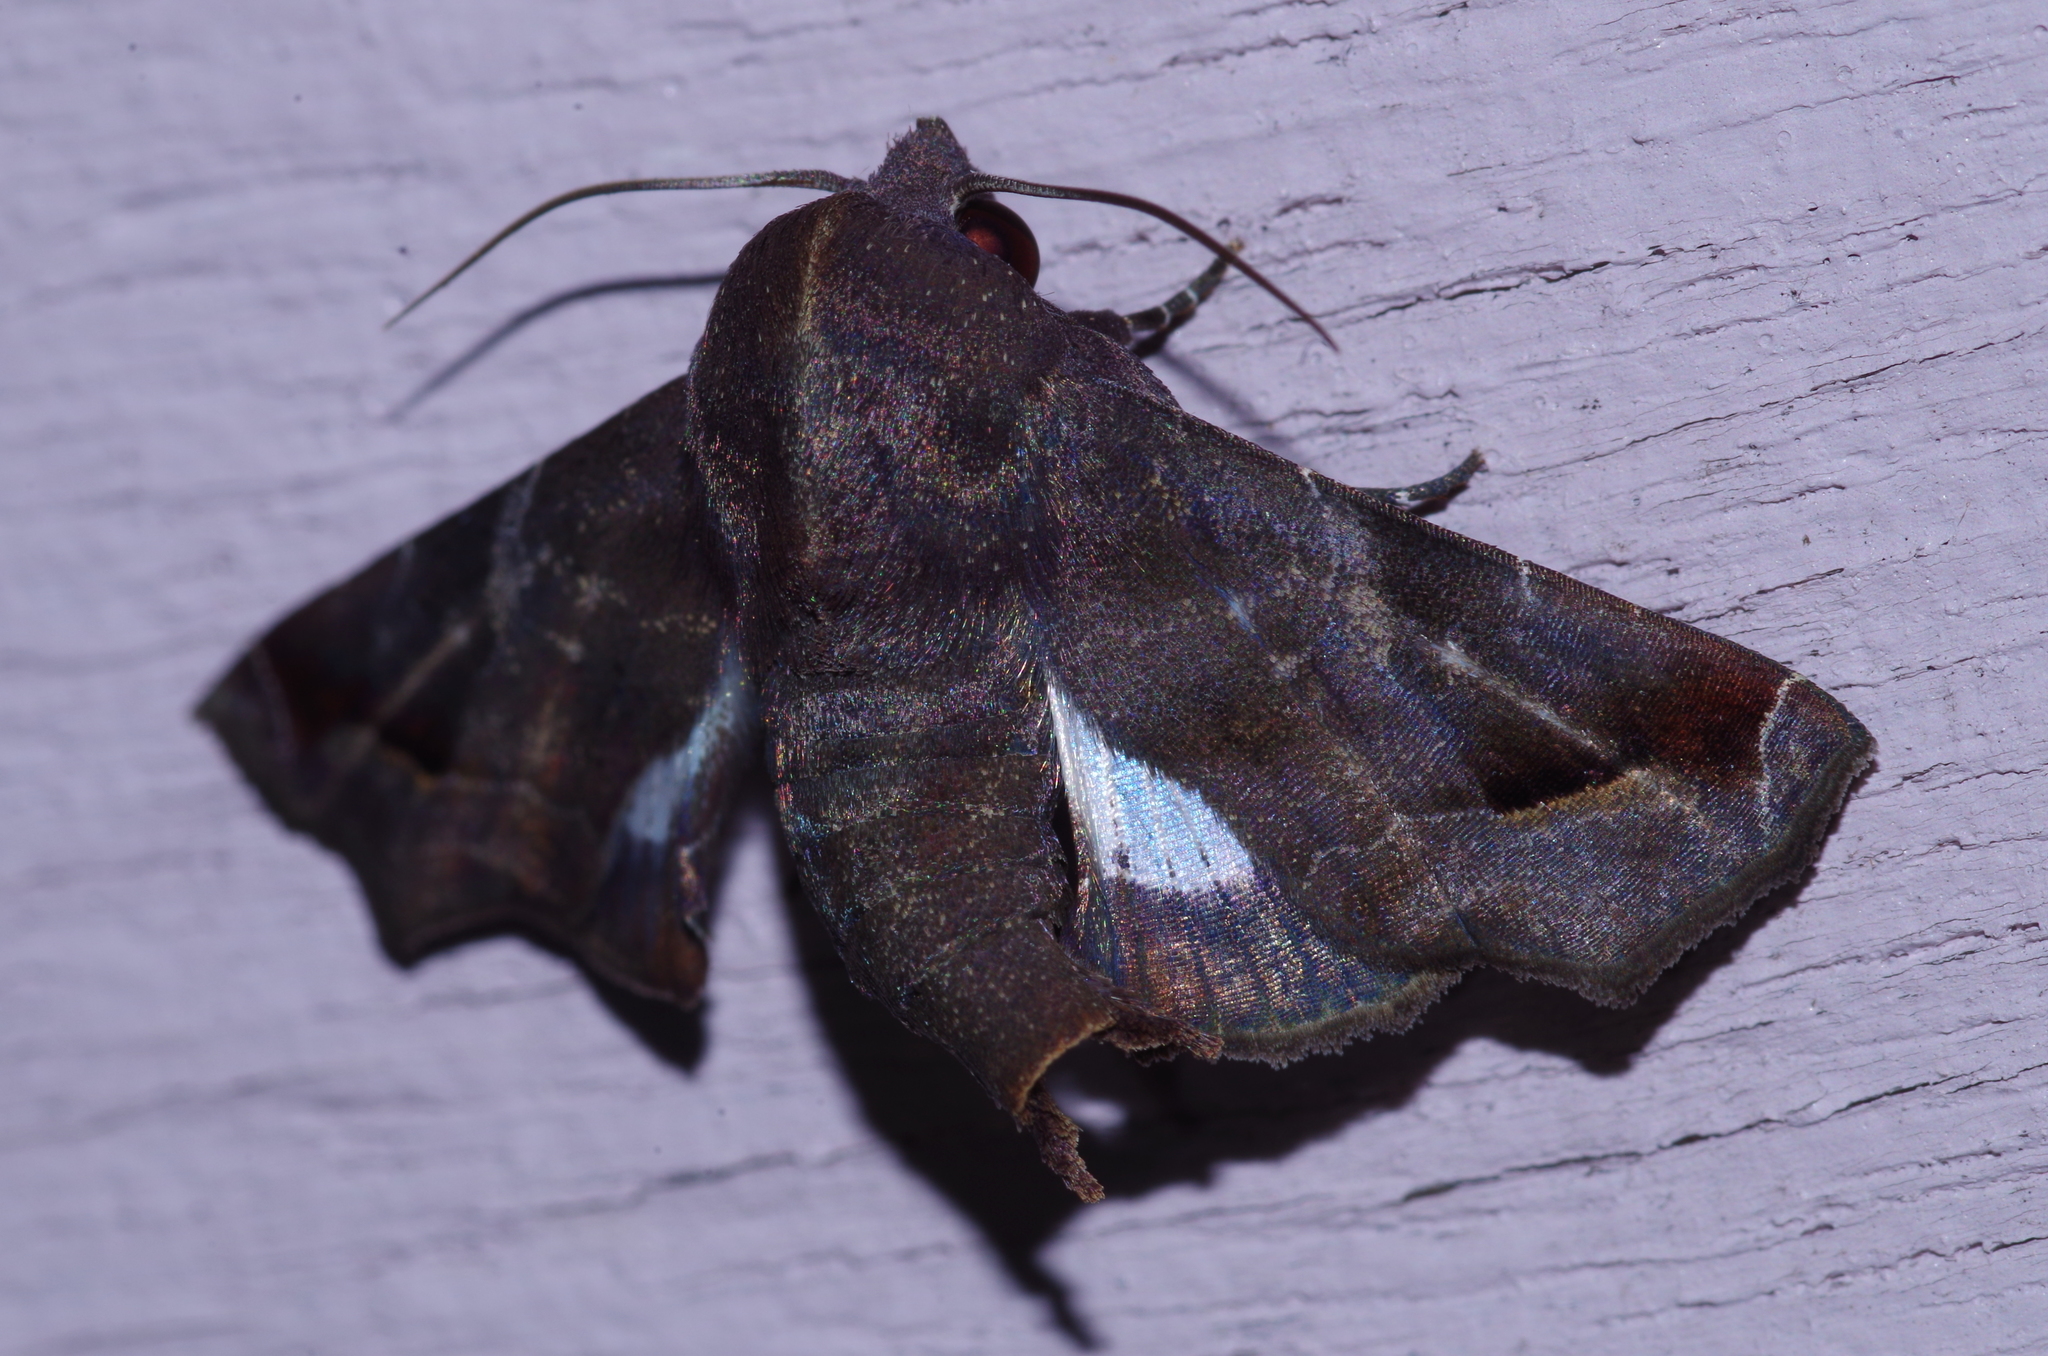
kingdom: Animalia
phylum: Arthropoda
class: Insecta
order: Lepidoptera
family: Euteliidae
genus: Penicillaria
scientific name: Penicillaria jocosatrix
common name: Mango shoot borer
